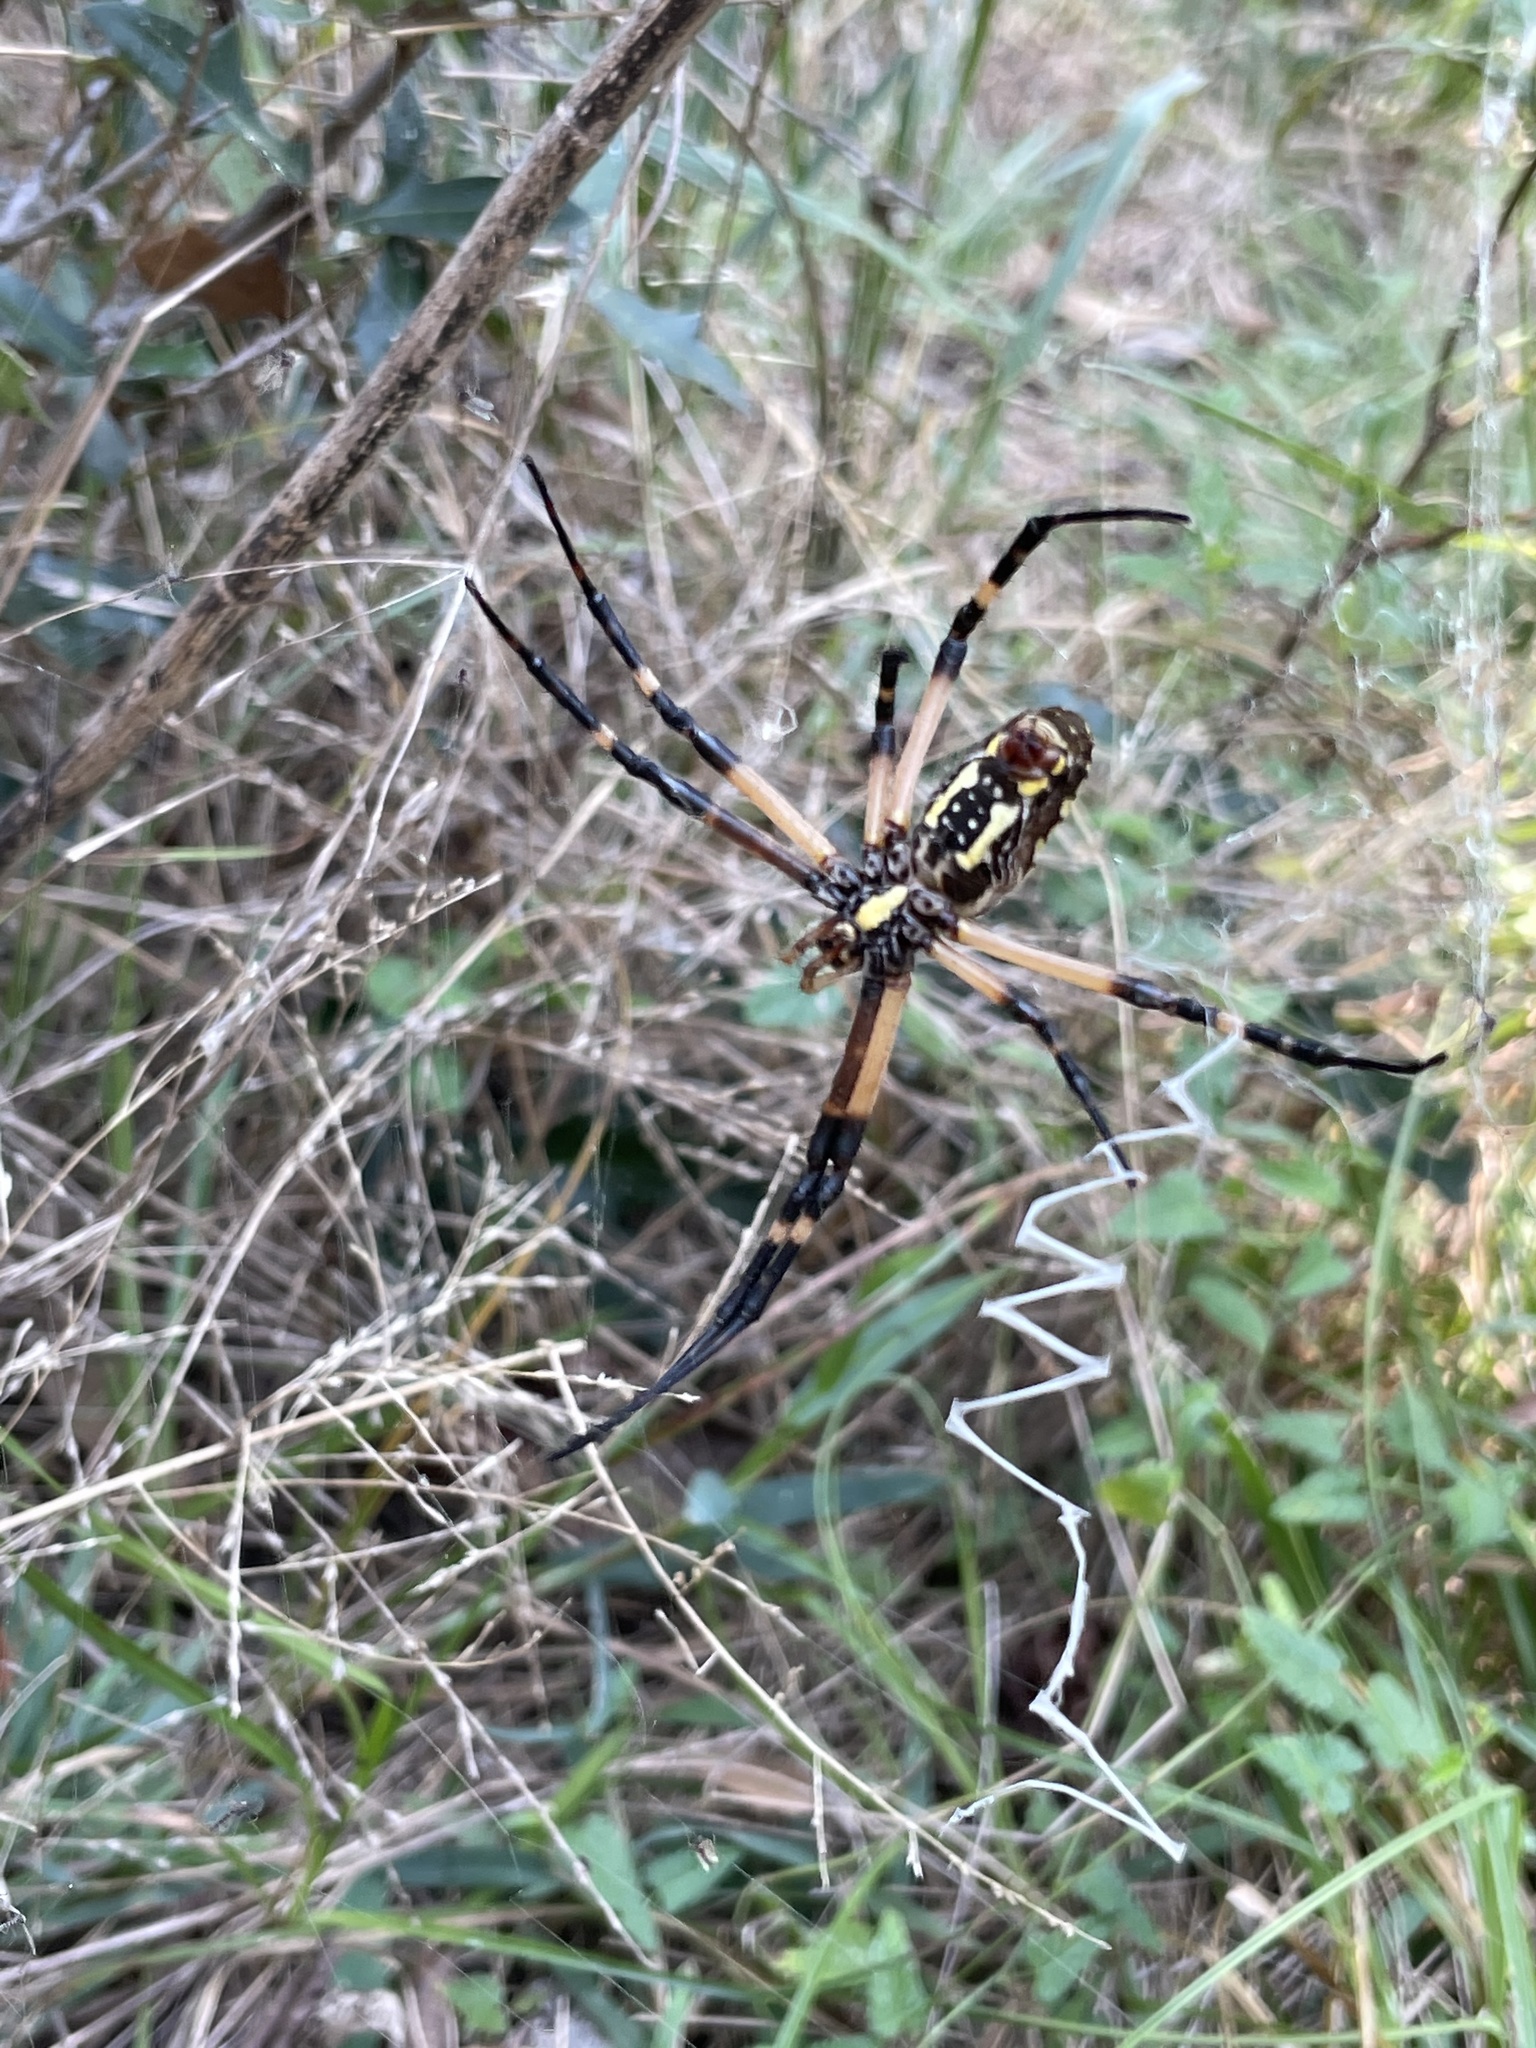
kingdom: Animalia
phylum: Arthropoda
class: Arachnida
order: Araneae
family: Araneidae
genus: Argiope
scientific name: Argiope aurantia
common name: Orb weavers
